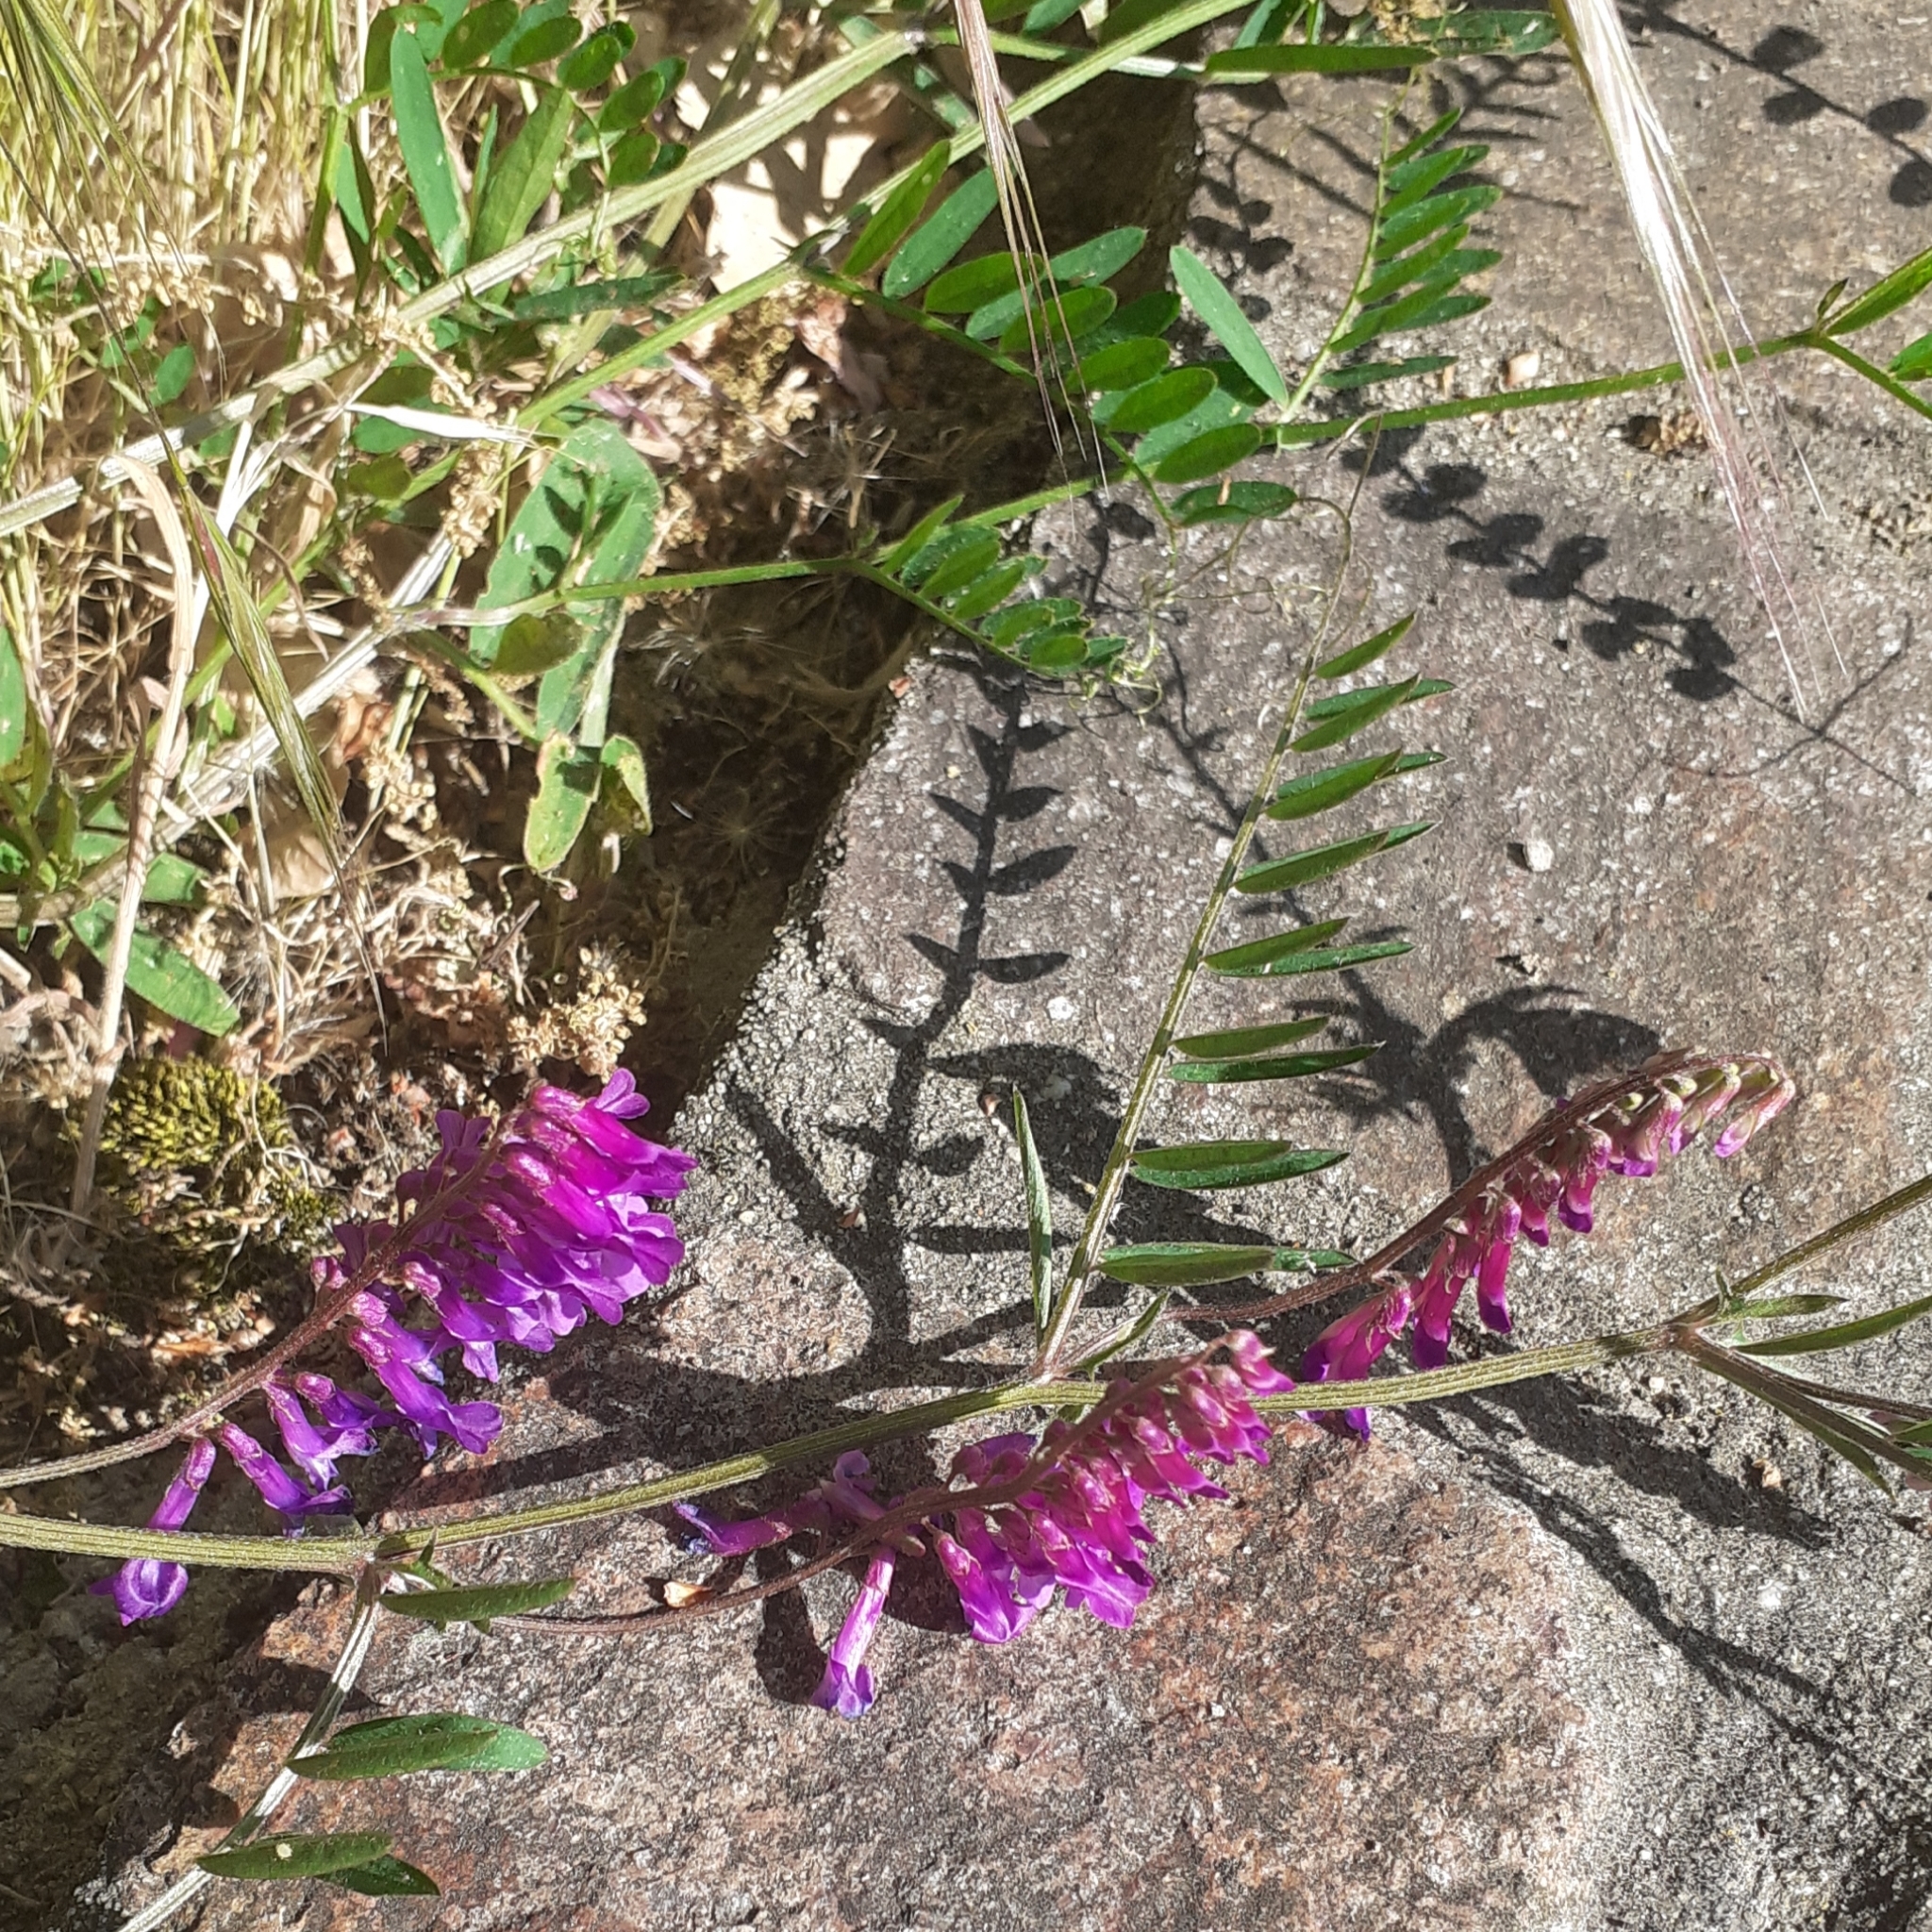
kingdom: Plantae
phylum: Tracheophyta
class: Magnoliopsida
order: Fabales
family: Fabaceae
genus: Vicia
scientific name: Vicia villosa
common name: Fodder vetch
